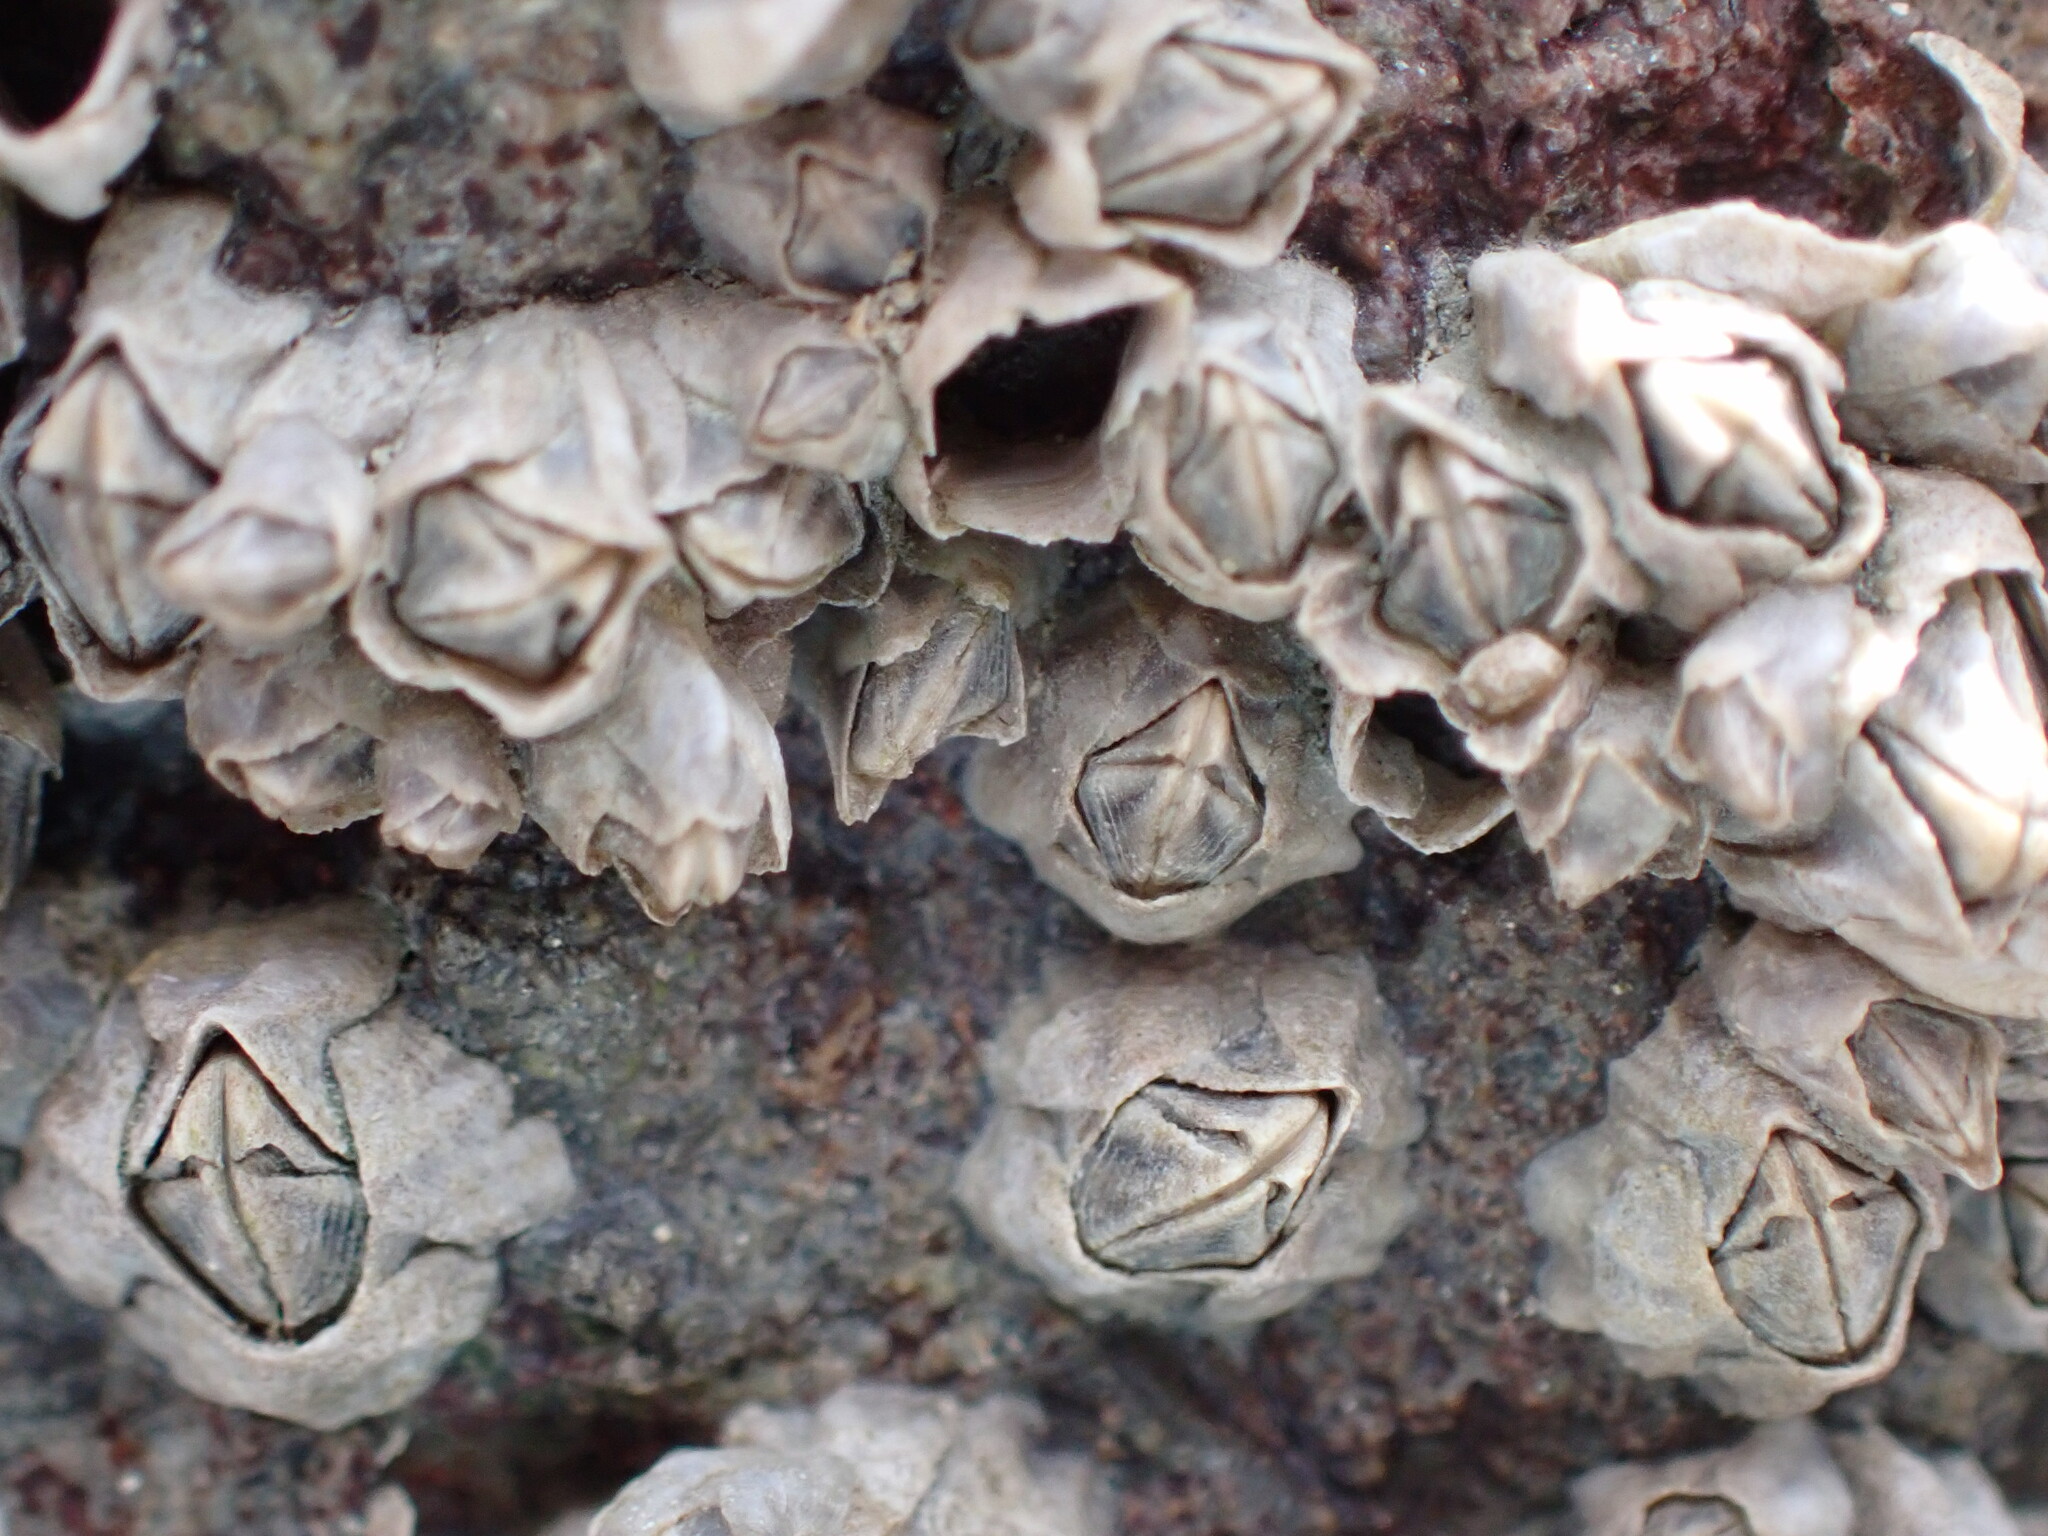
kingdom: Animalia
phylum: Arthropoda
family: Elminiidae
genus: Austrominius
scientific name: Austrominius modestus
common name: Australasian barnacle
